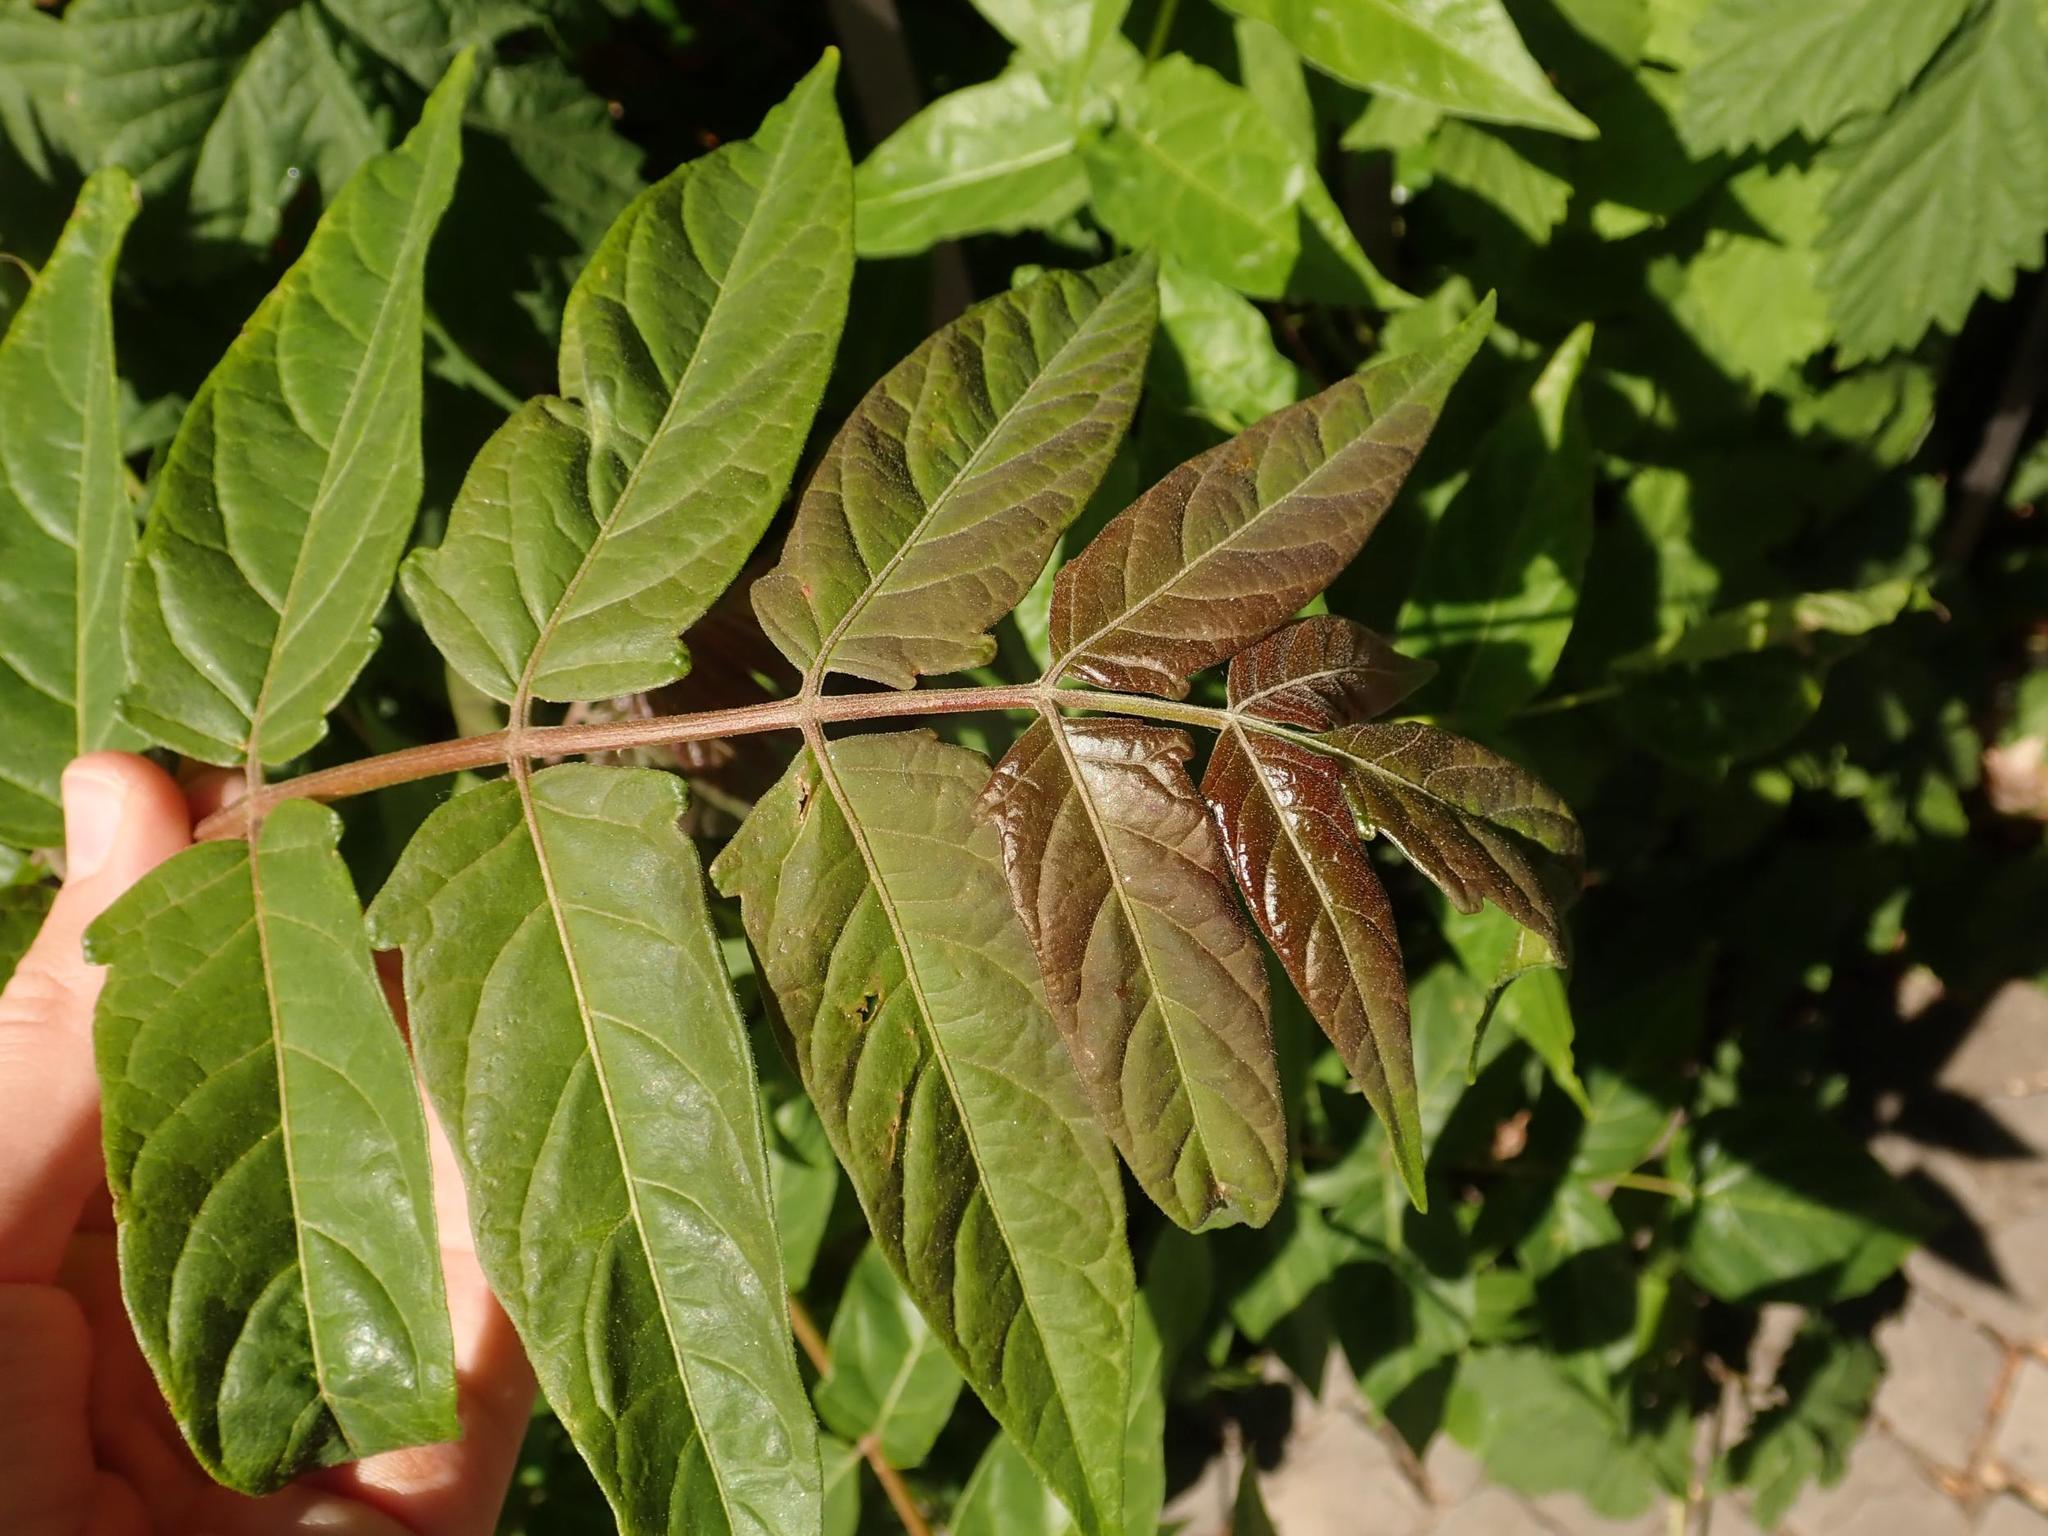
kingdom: Plantae
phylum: Tracheophyta
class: Magnoliopsida
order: Sapindales
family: Simaroubaceae
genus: Ailanthus
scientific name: Ailanthus altissima
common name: Tree-of-heaven
